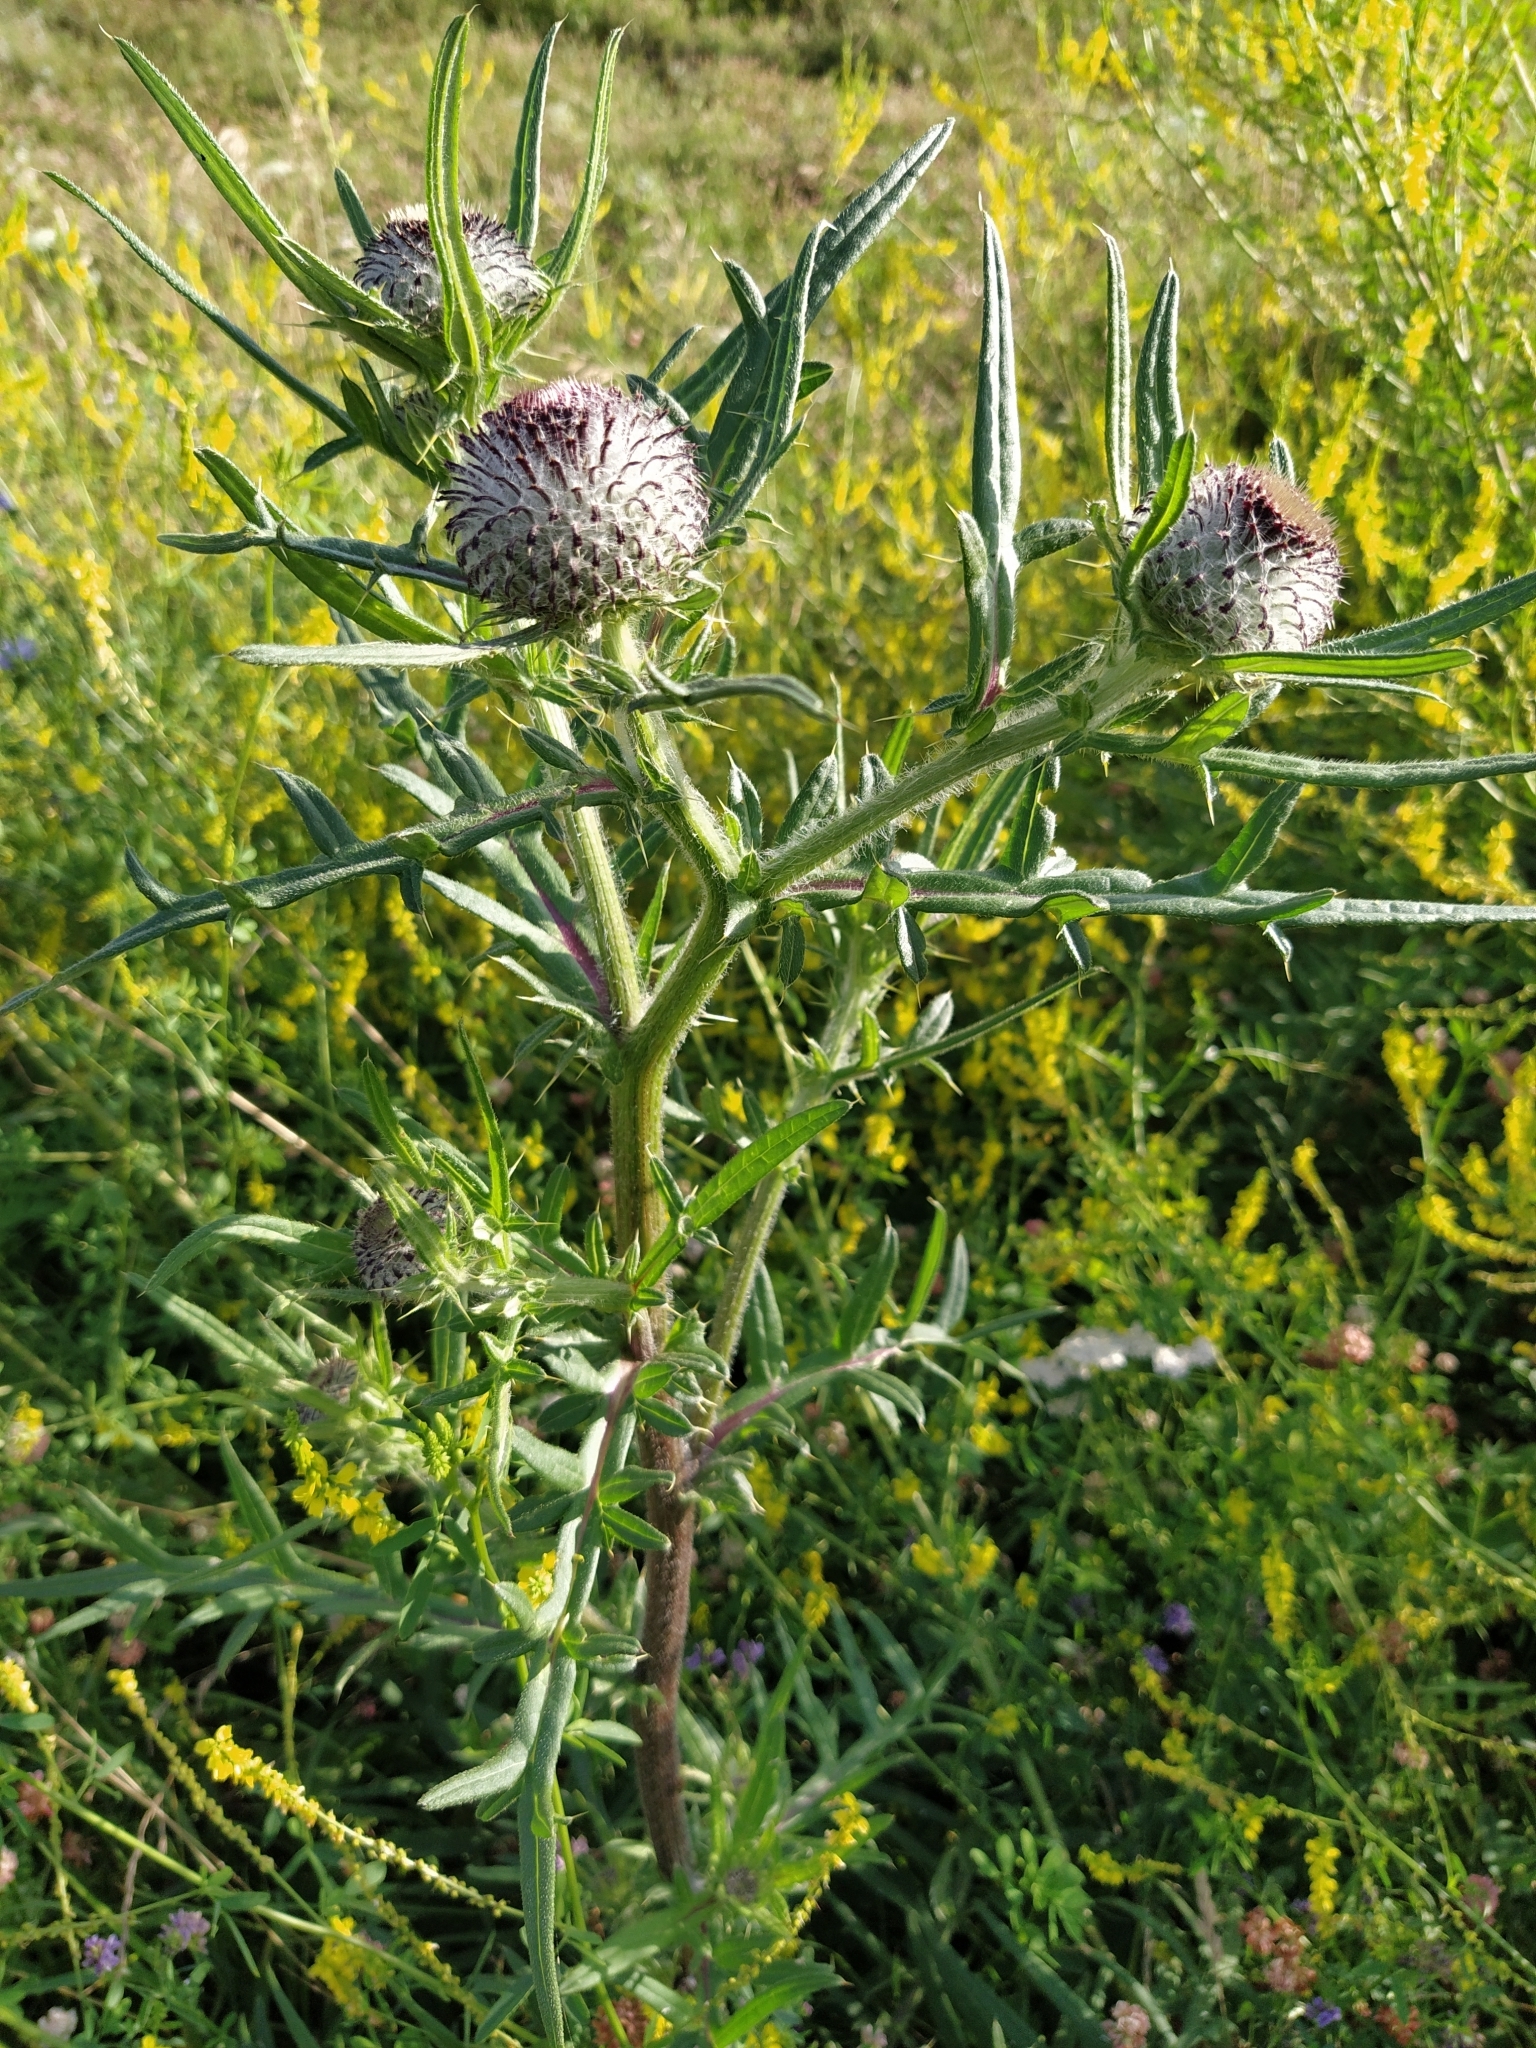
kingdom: Plantae
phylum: Tracheophyta
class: Magnoliopsida
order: Asterales
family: Asteraceae
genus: Lophiolepis
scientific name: Lophiolepis decussata
